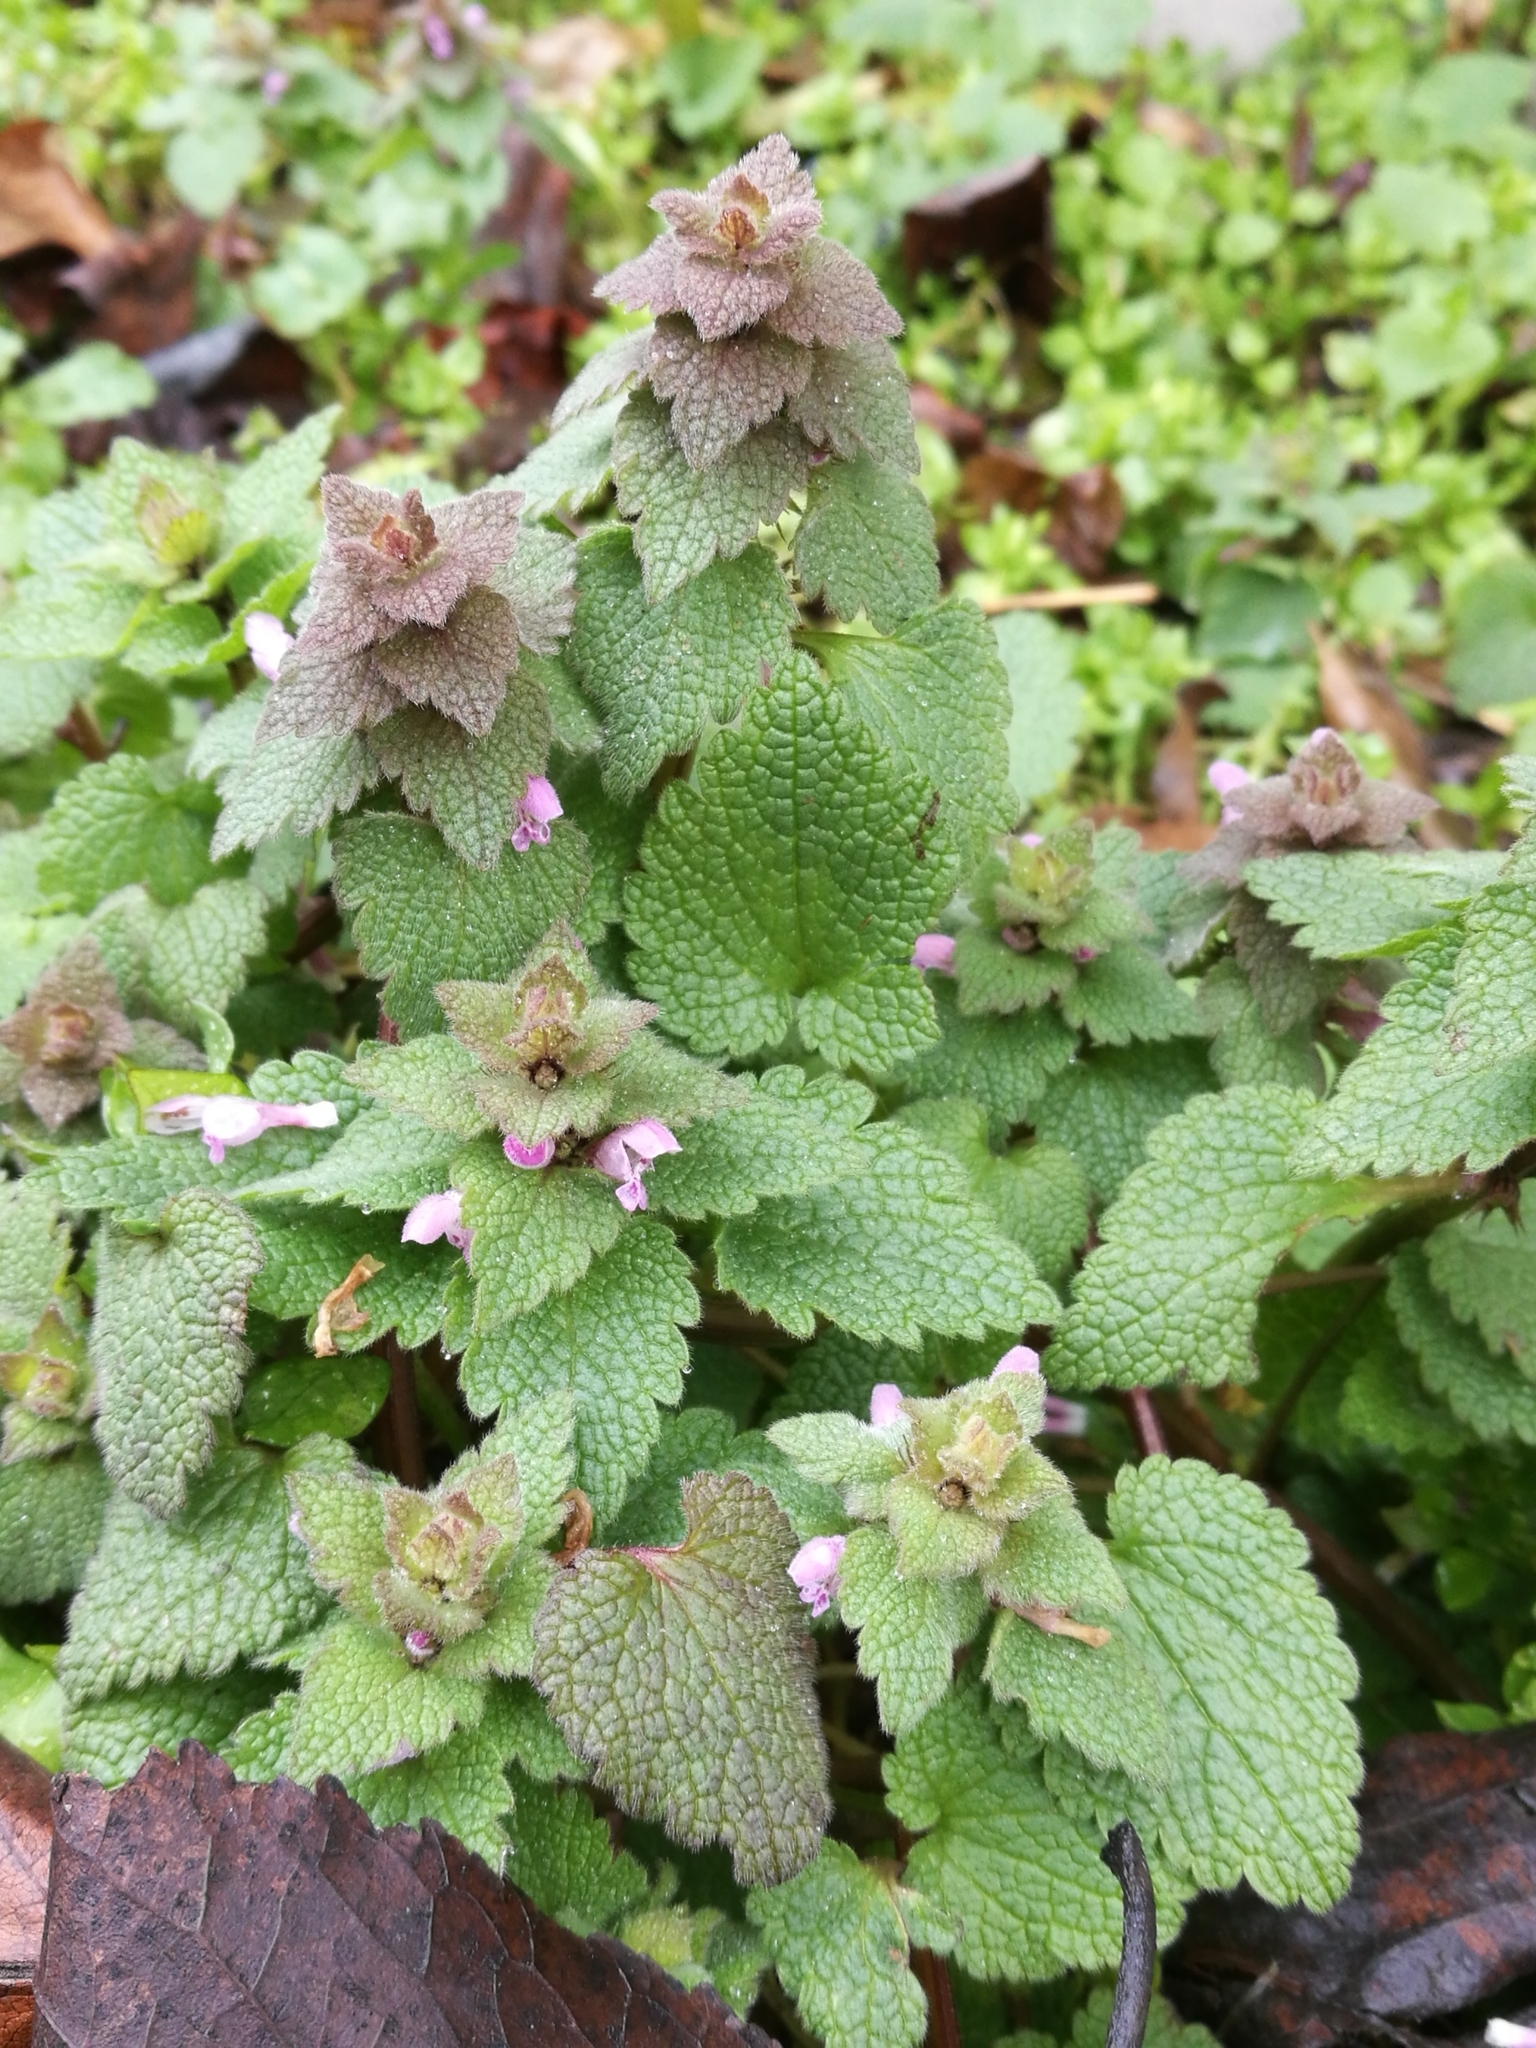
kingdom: Plantae
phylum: Tracheophyta
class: Magnoliopsida
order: Lamiales
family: Lamiaceae
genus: Lamium
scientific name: Lamium purpureum
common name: Red dead-nettle
